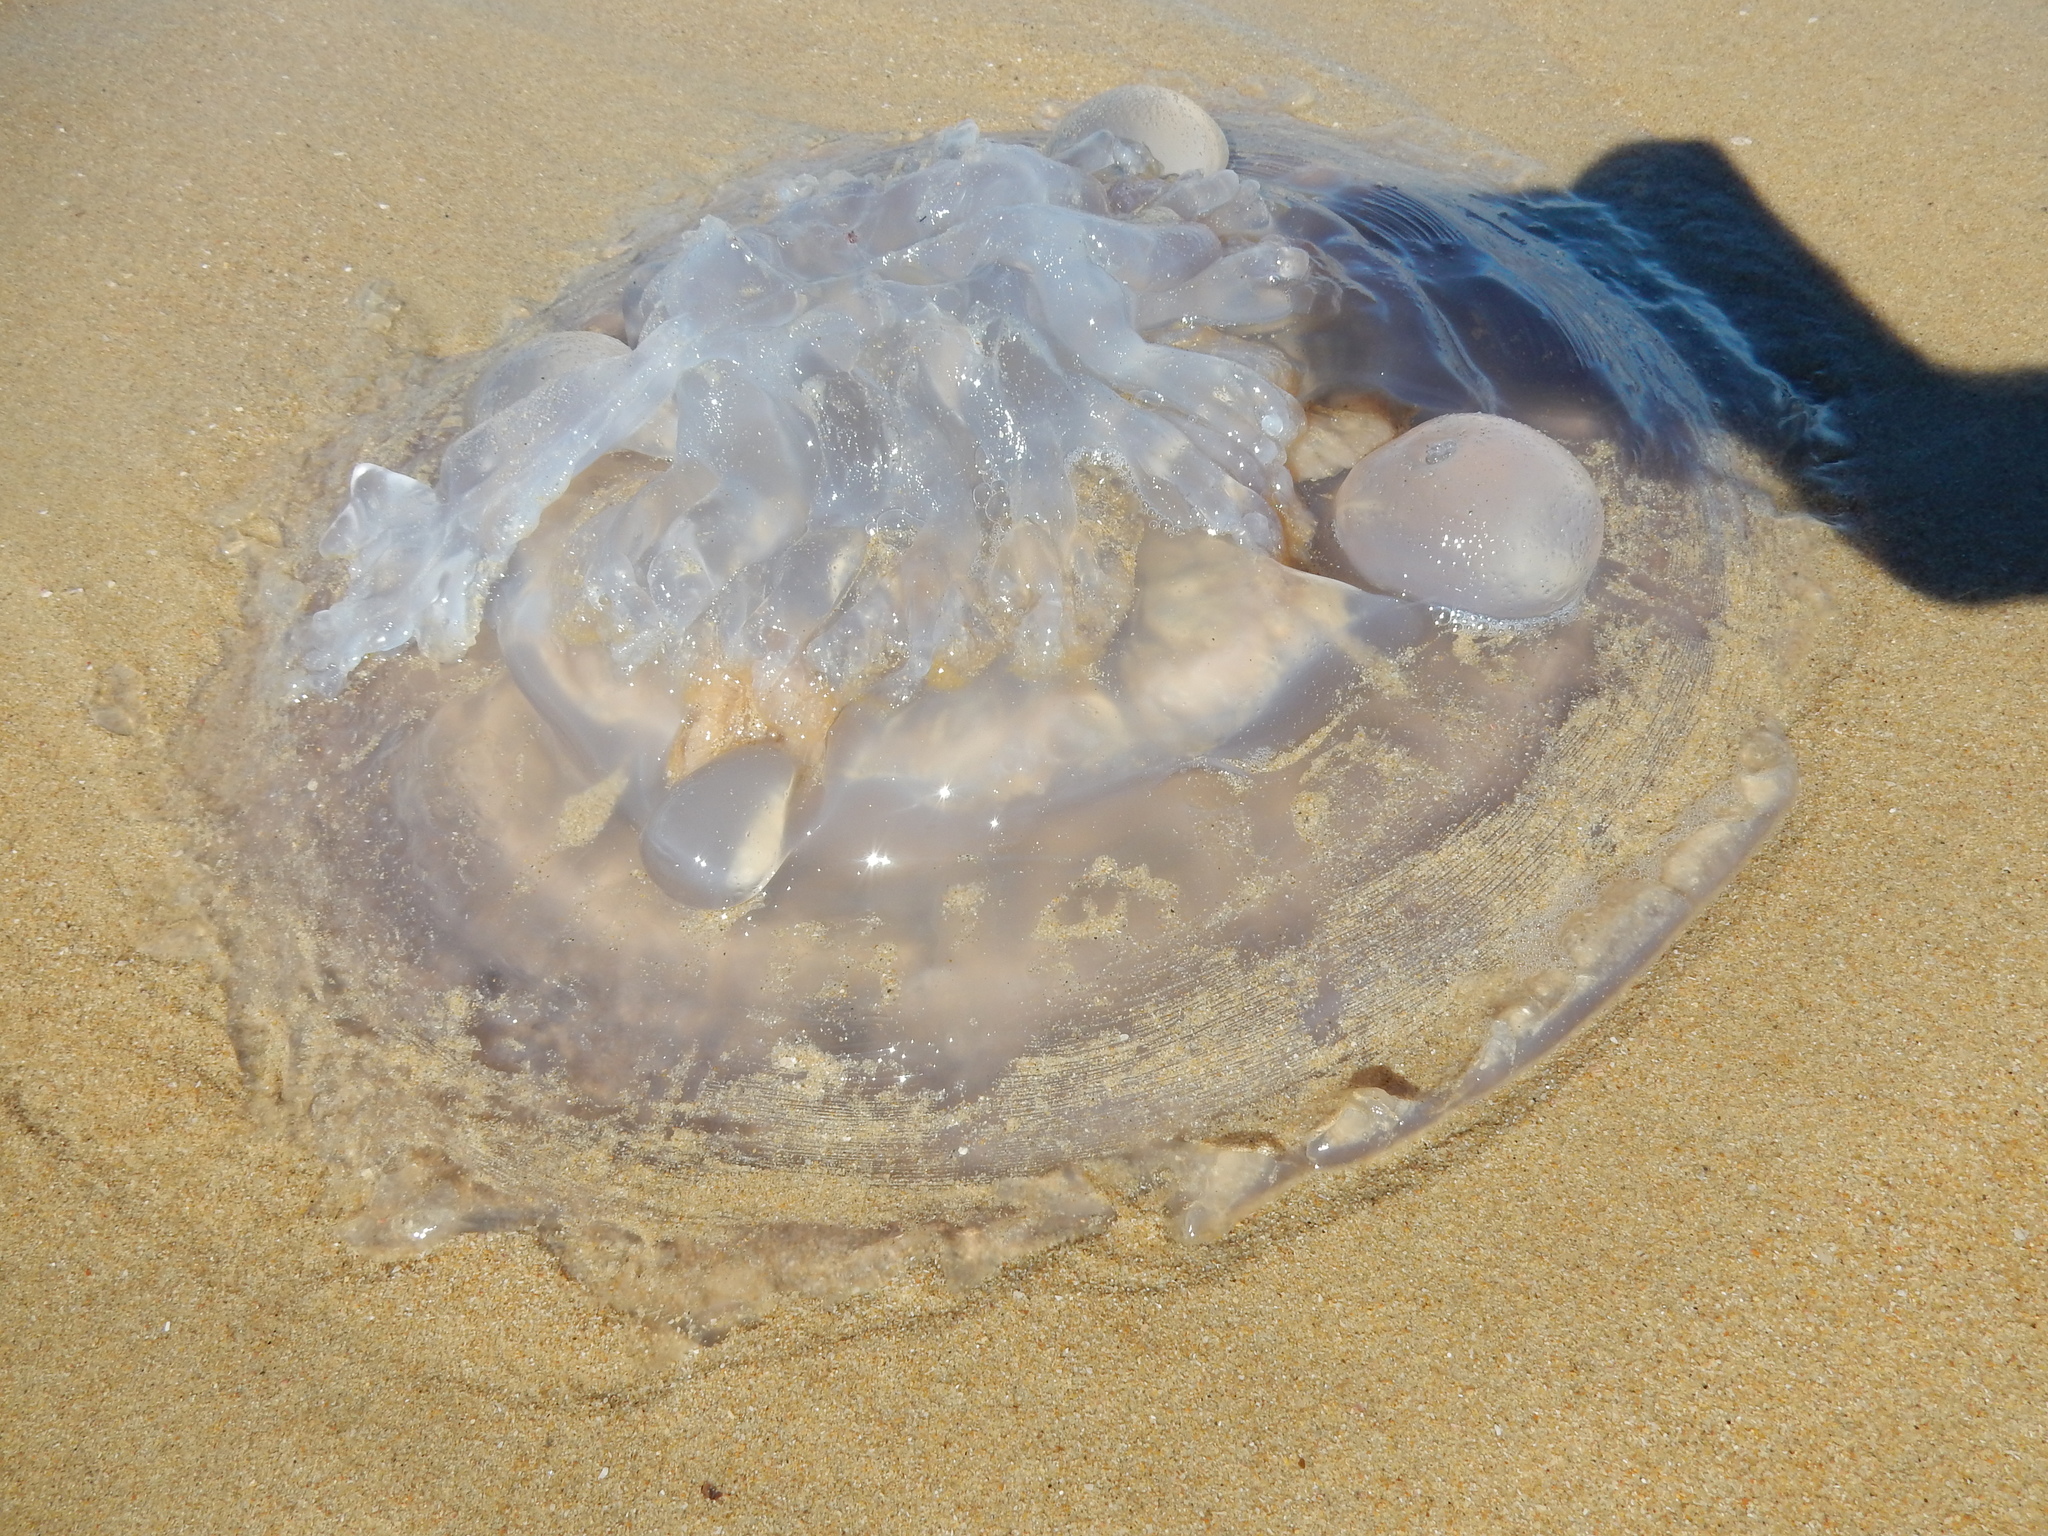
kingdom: Animalia
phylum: Cnidaria
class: Scyphozoa
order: Rhizostomeae
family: Rhizostomatidae
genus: Eupilema
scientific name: Eupilema inexpectata
